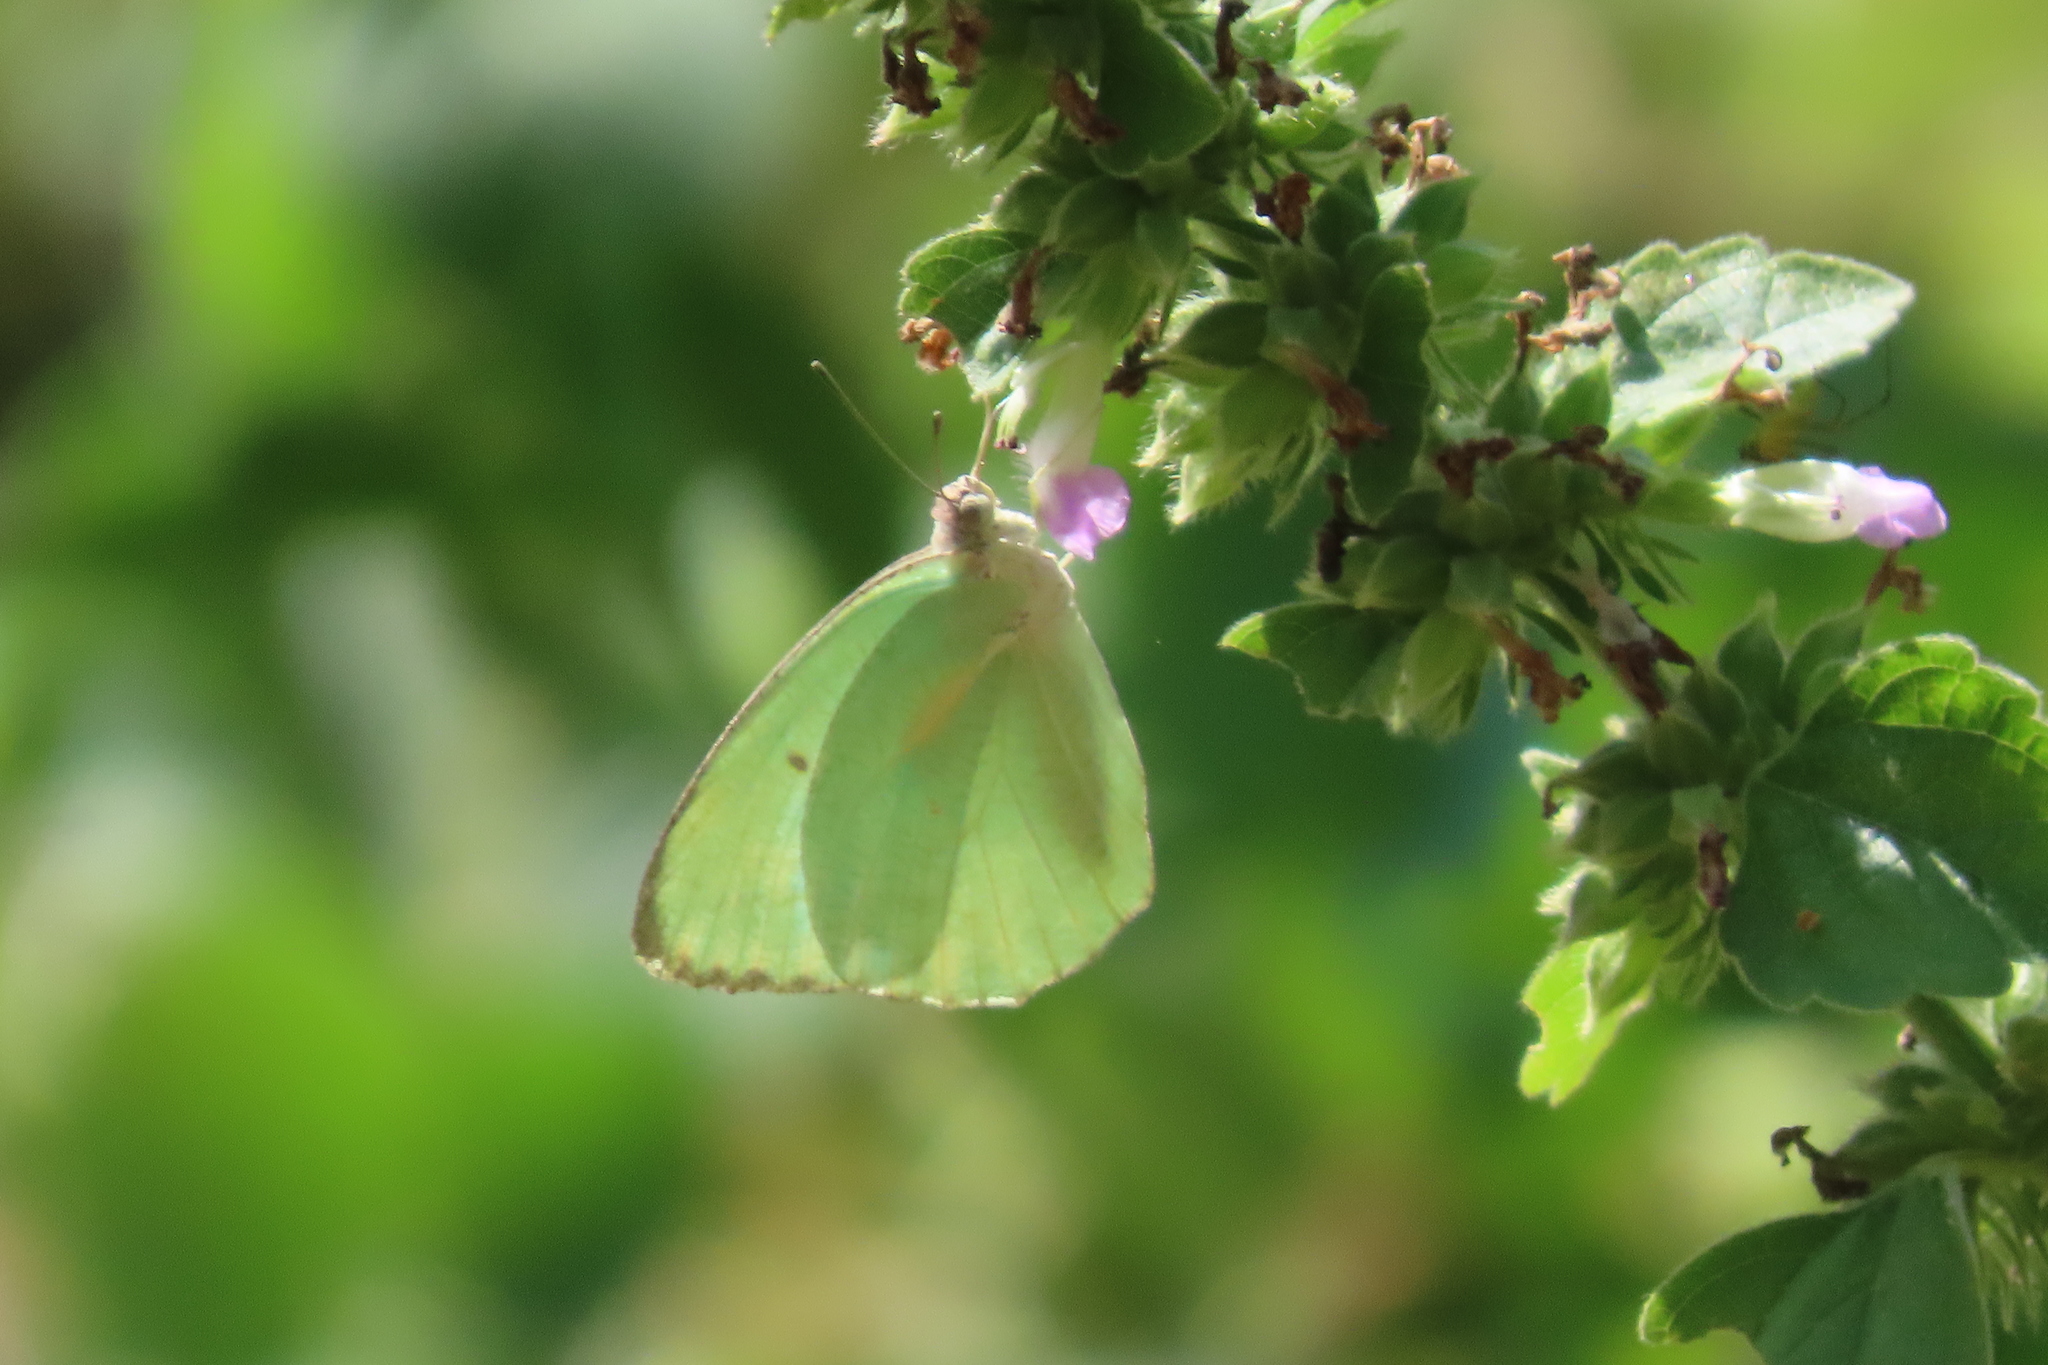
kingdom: Animalia
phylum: Arthropoda
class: Insecta
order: Lepidoptera
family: Pieridae
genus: Catopsilia
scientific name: Catopsilia pomona
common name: Common emigrant
